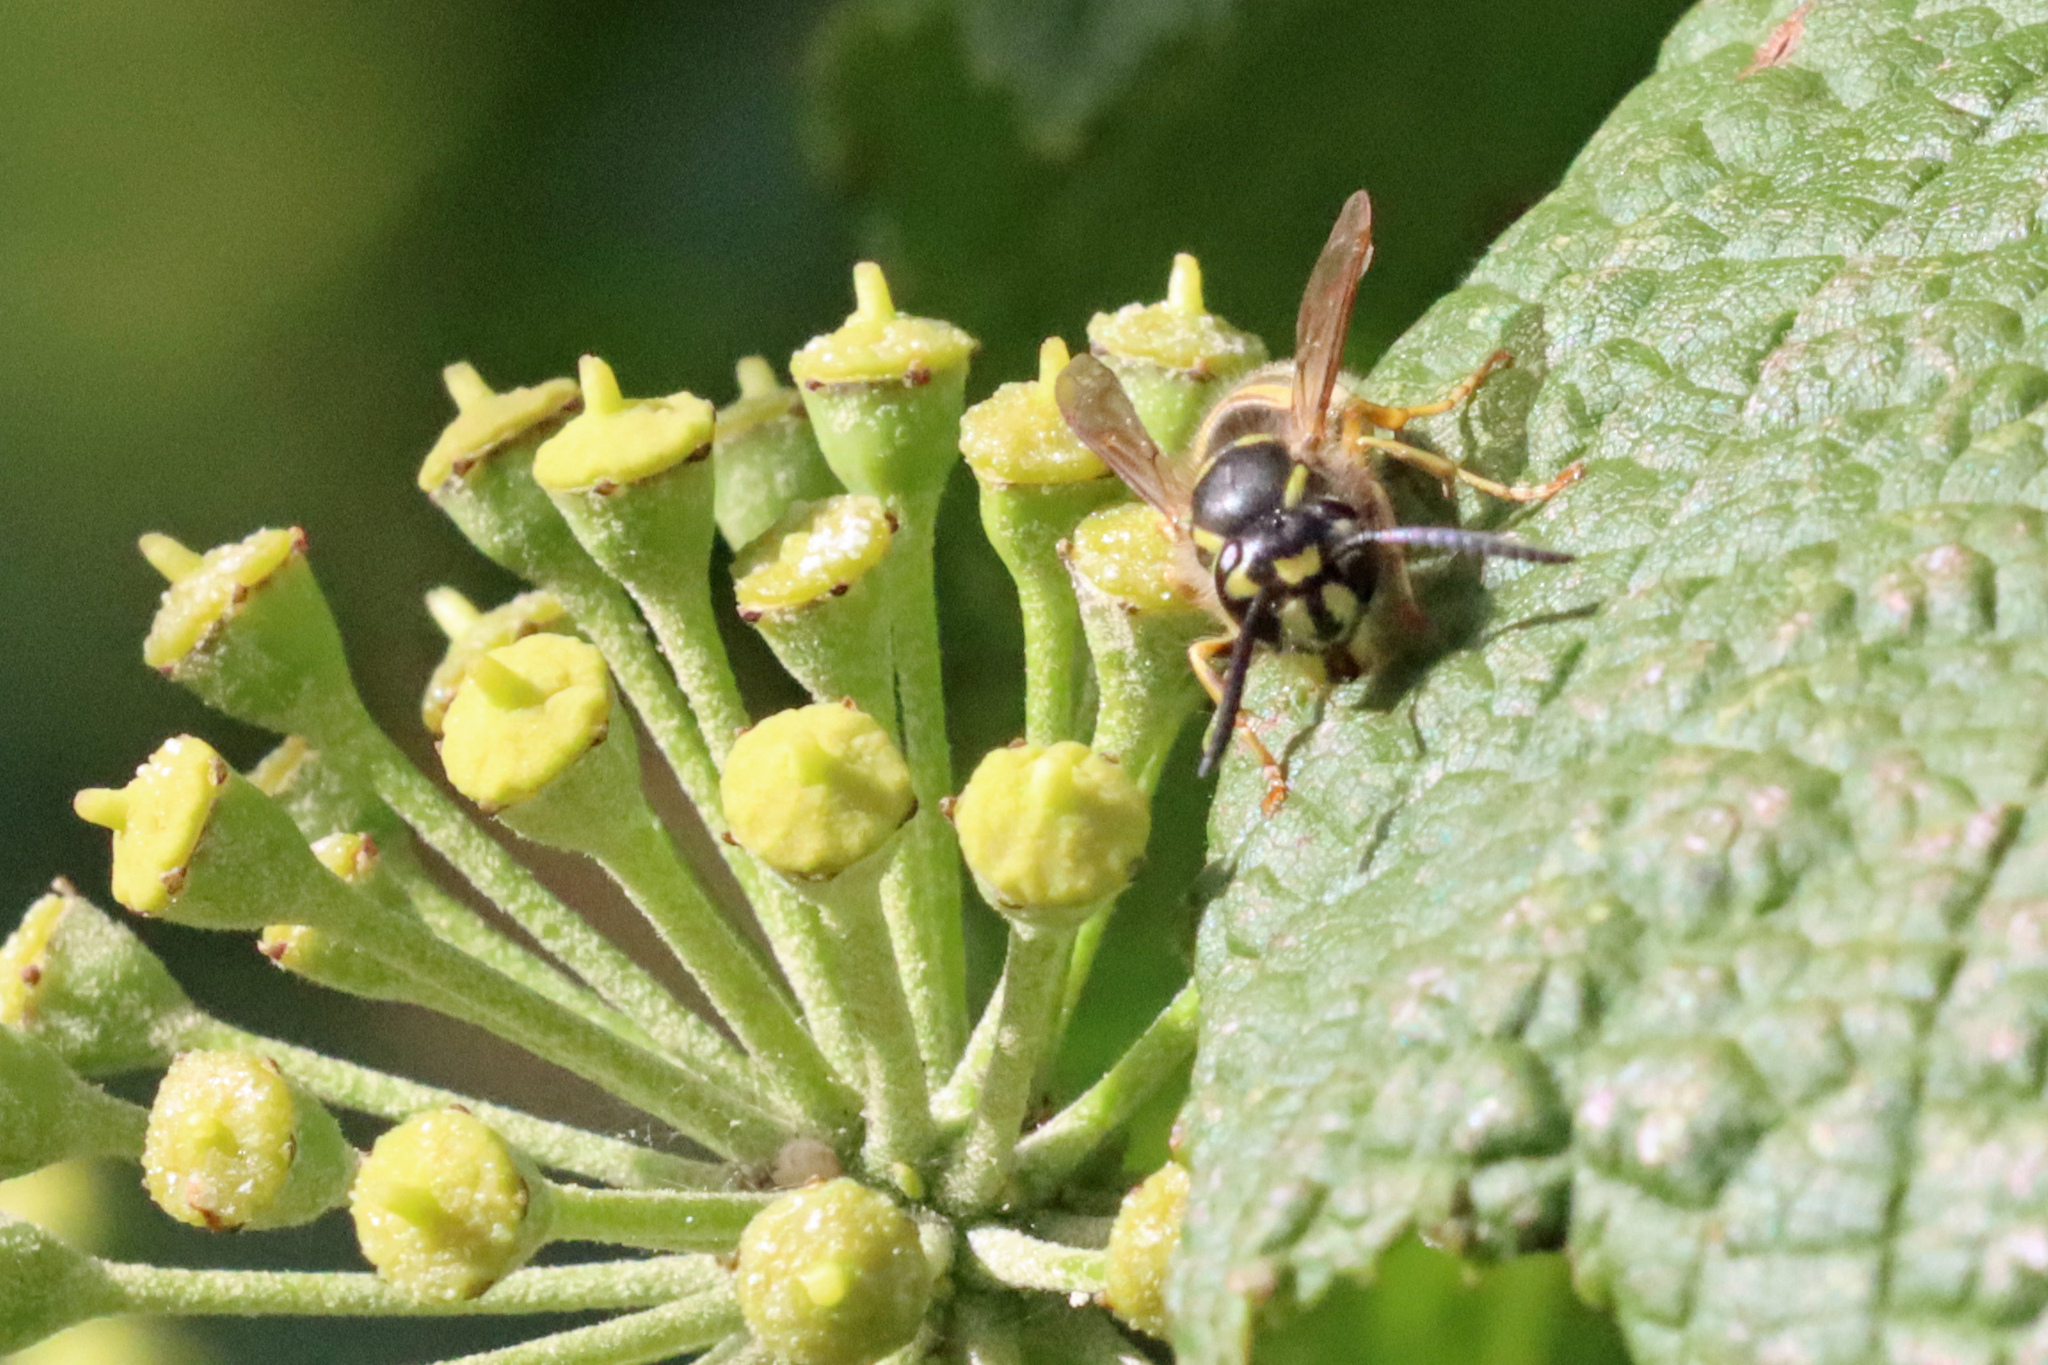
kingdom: Animalia
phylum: Arthropoda
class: Insecta
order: Hymenoptera
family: Vespidae
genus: Vespula
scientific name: Vespula vulgaris
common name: Common wasp
